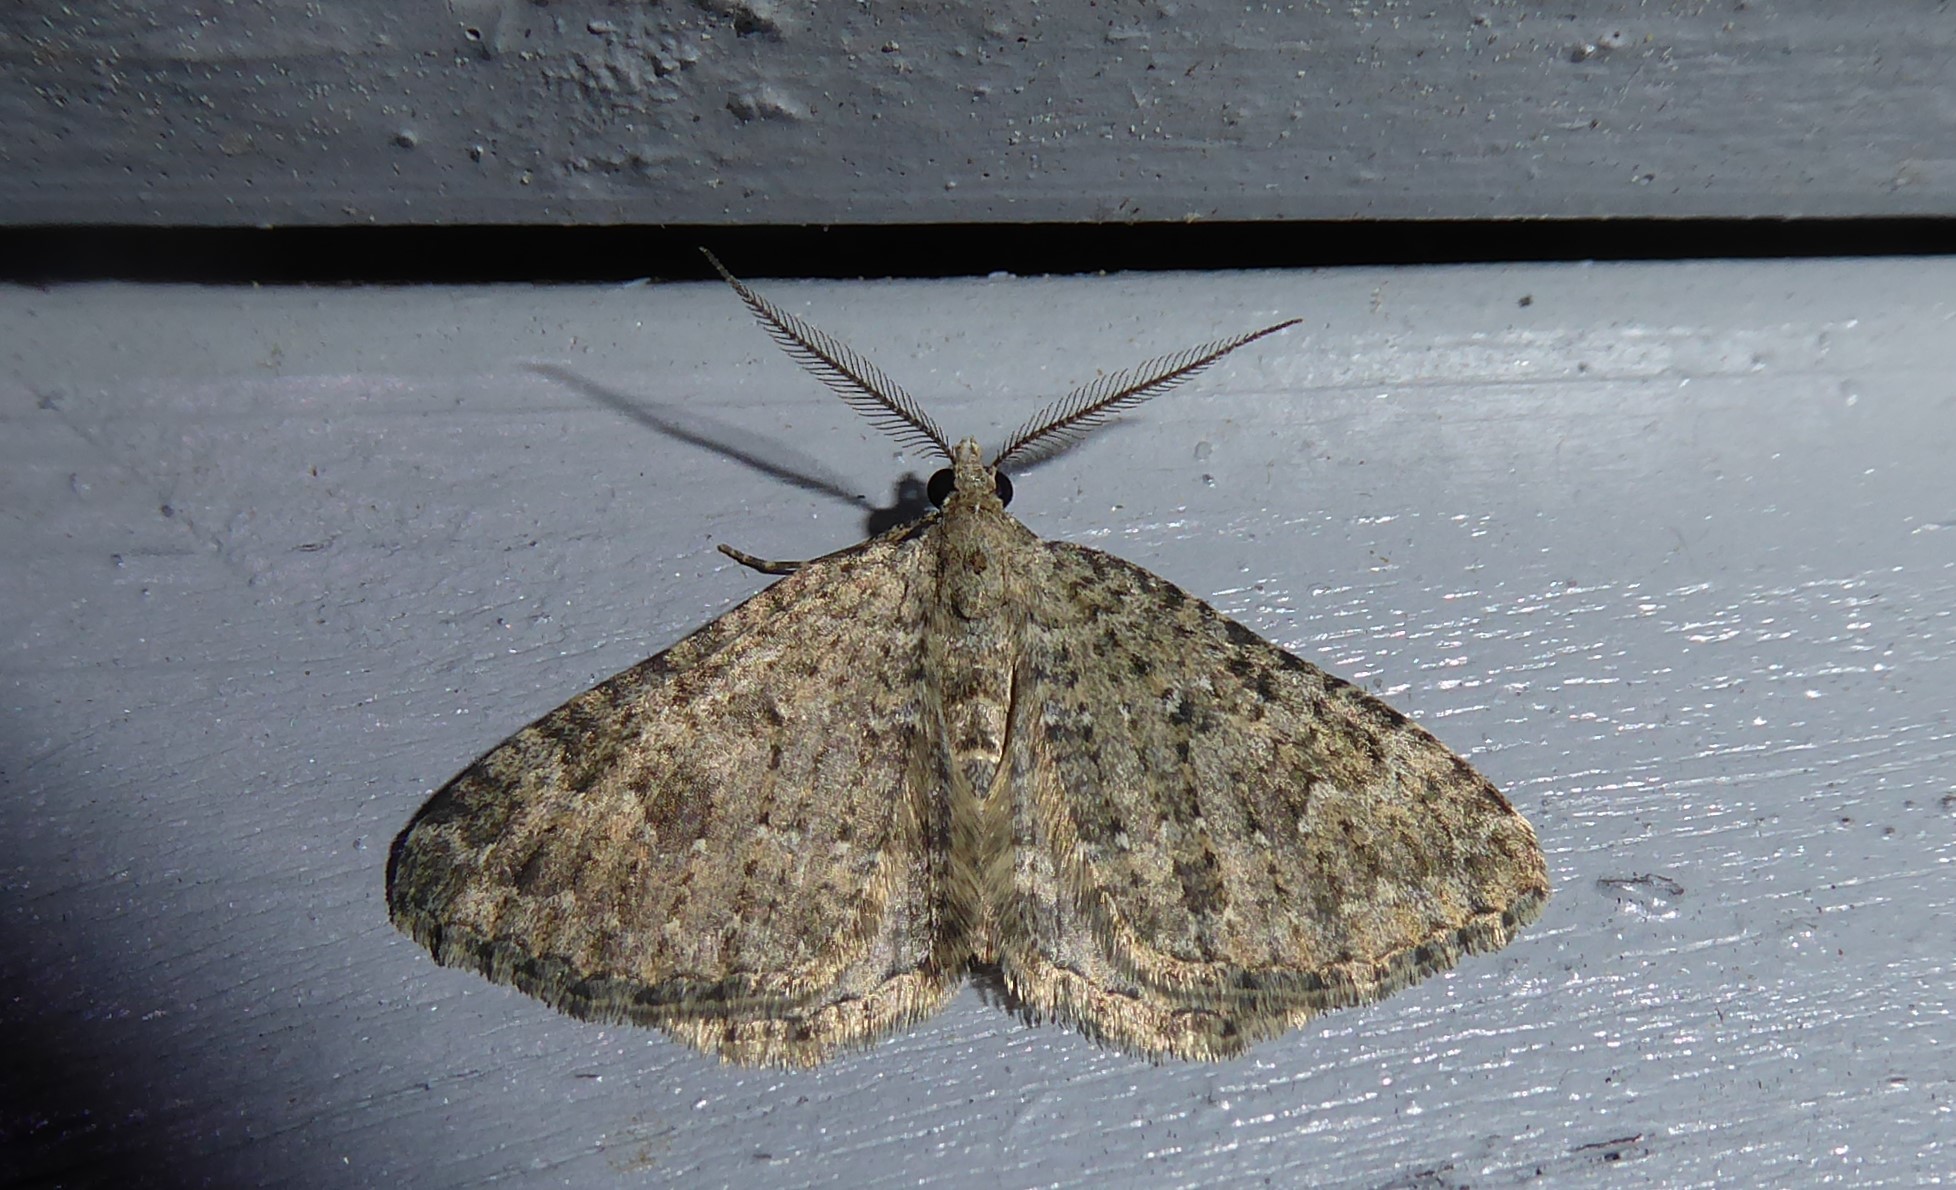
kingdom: Animalia
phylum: Arthropoda
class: Insecta
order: Lepidoptera
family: Geometridae
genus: Helastia
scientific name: Helastia corcularia
